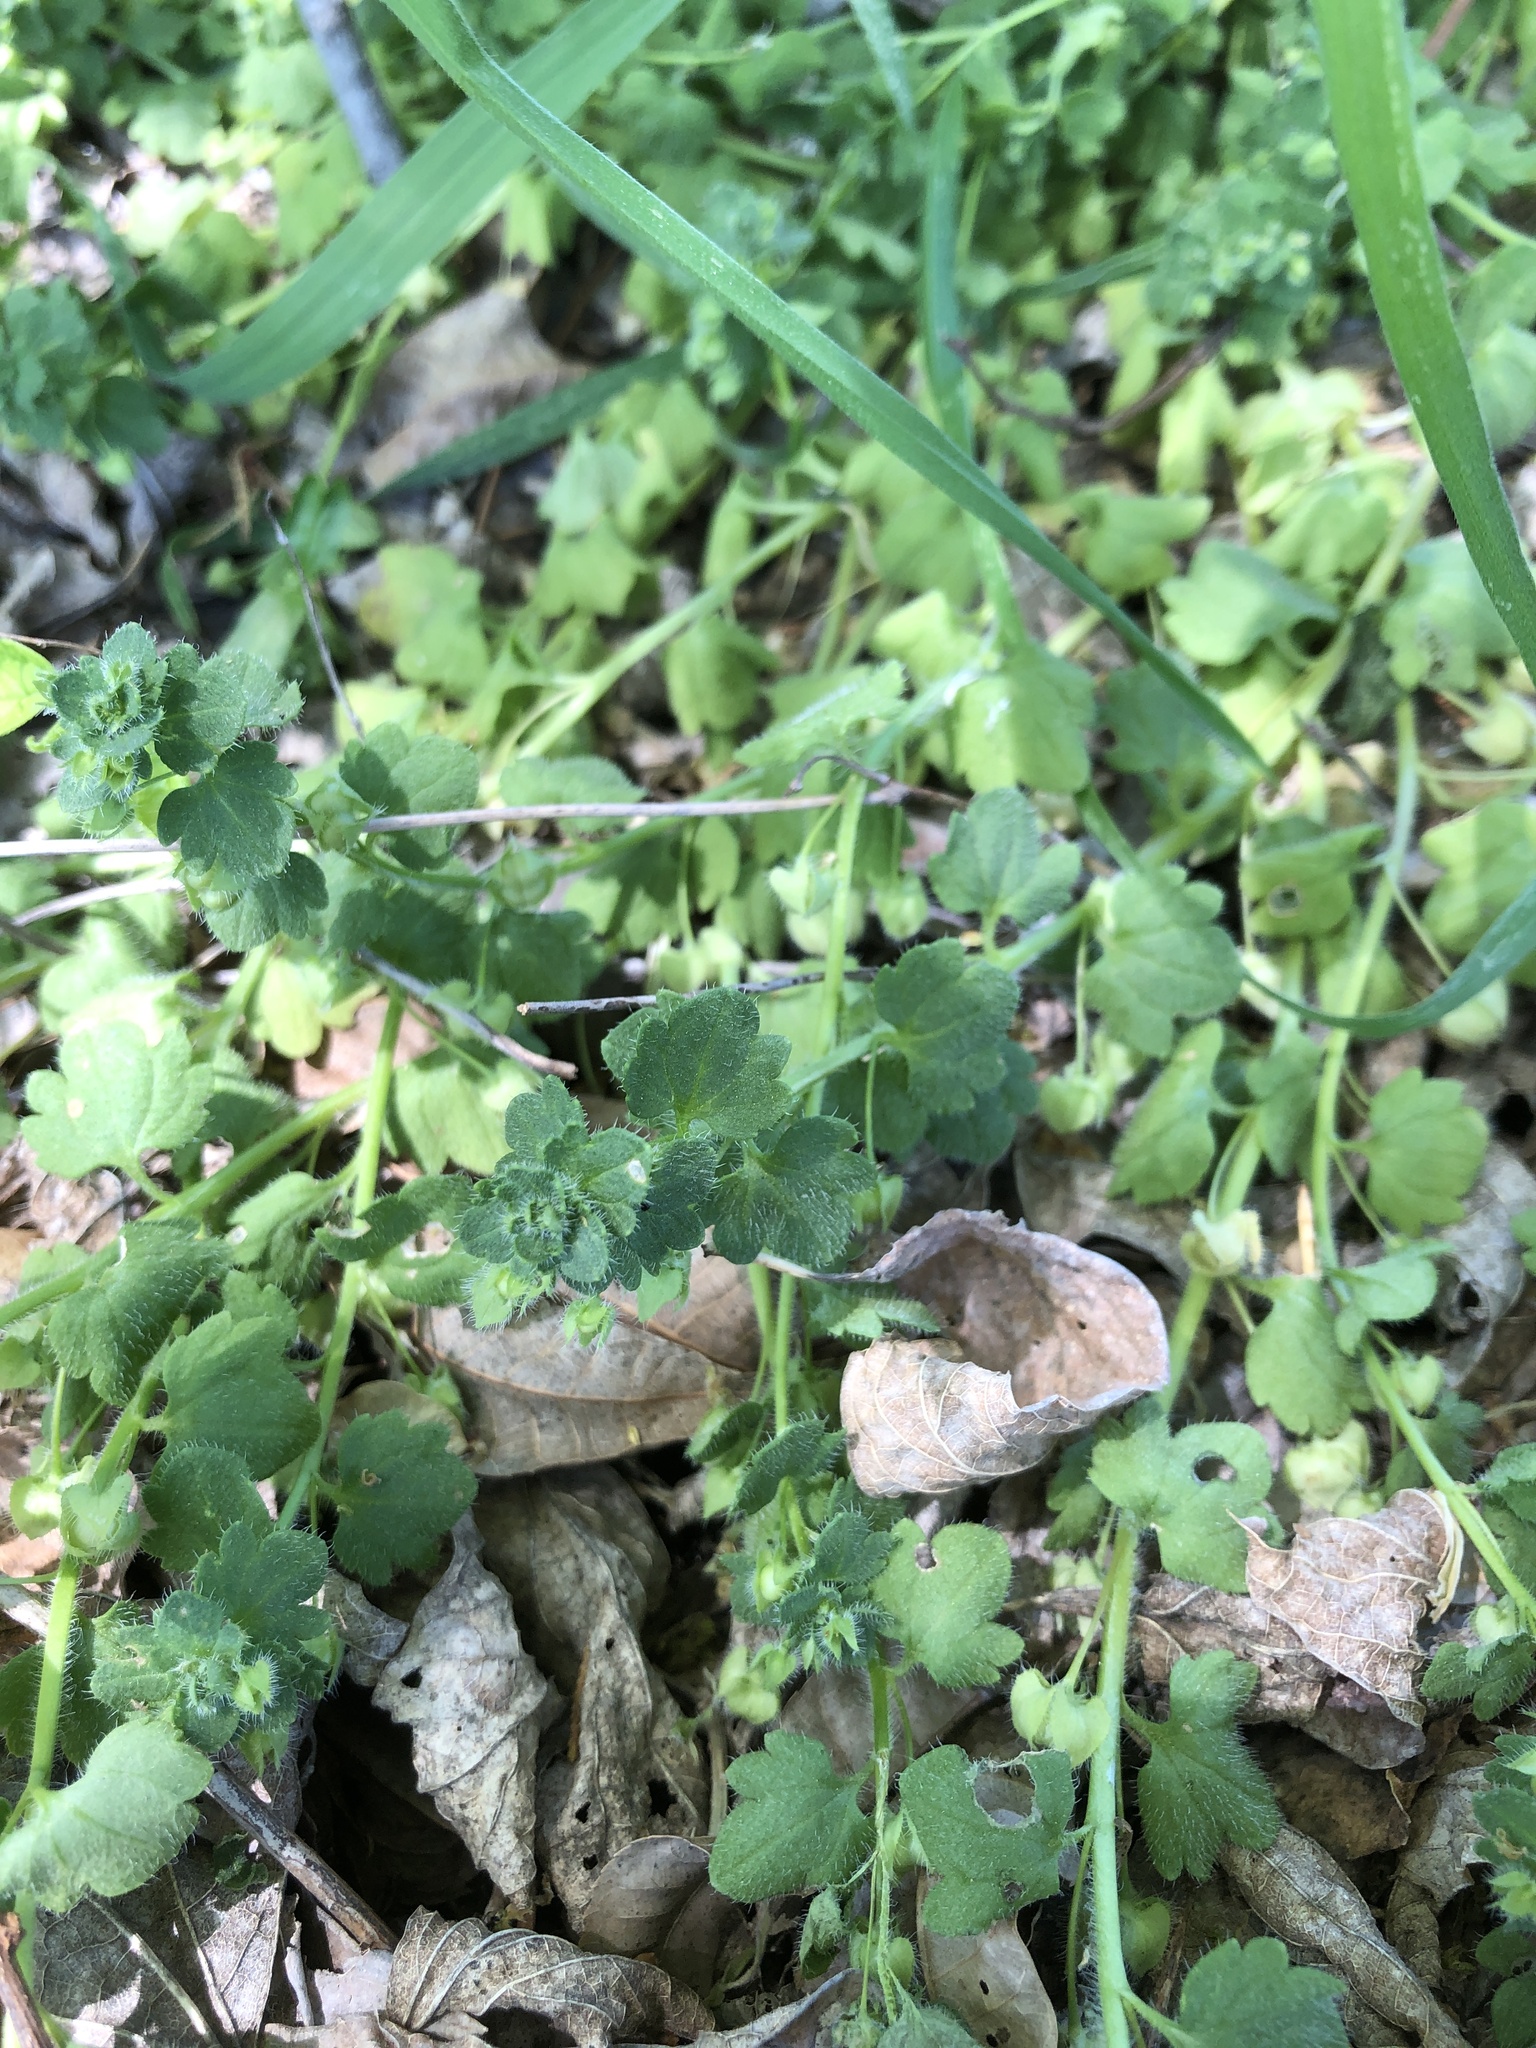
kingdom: Plantae
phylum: Tracheophyta
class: Magnoliopsida
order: Lamiales
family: Plantaginaceae
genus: Veronica
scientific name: Veronica hederifolia
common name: Ivy-leaved speedwell
